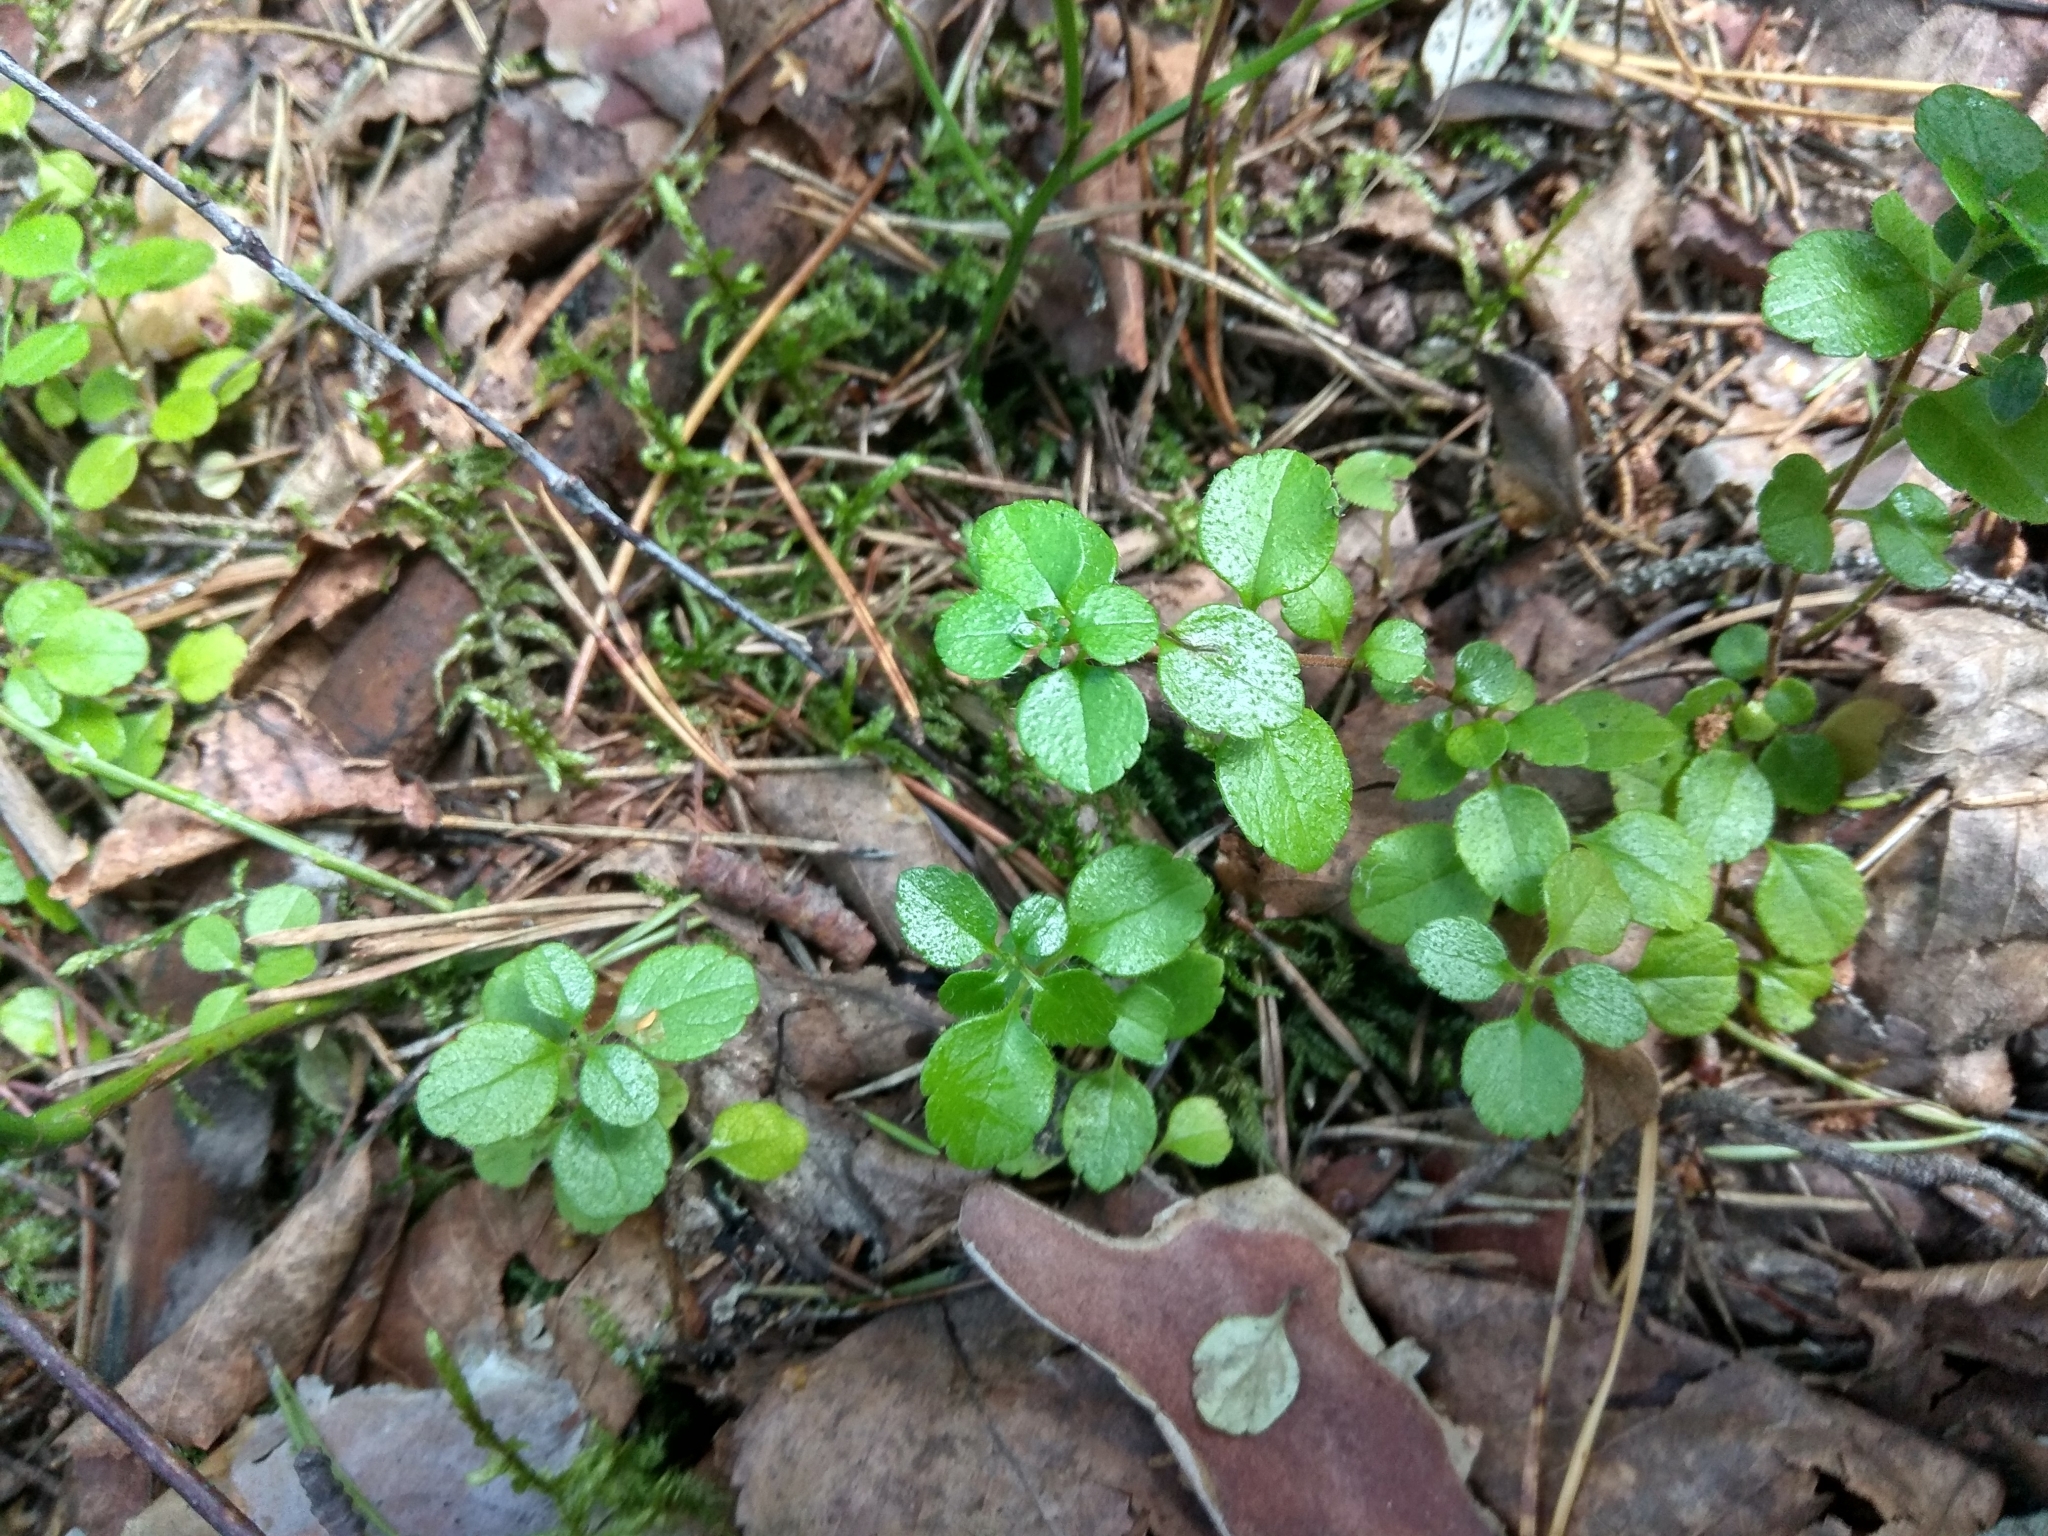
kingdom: Plantae
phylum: Tracheophyta
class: Magnoliopsida
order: Dipsacales
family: Caprifoliaceae
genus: Linnaea
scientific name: Linnaea borealis
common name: Twinflower
